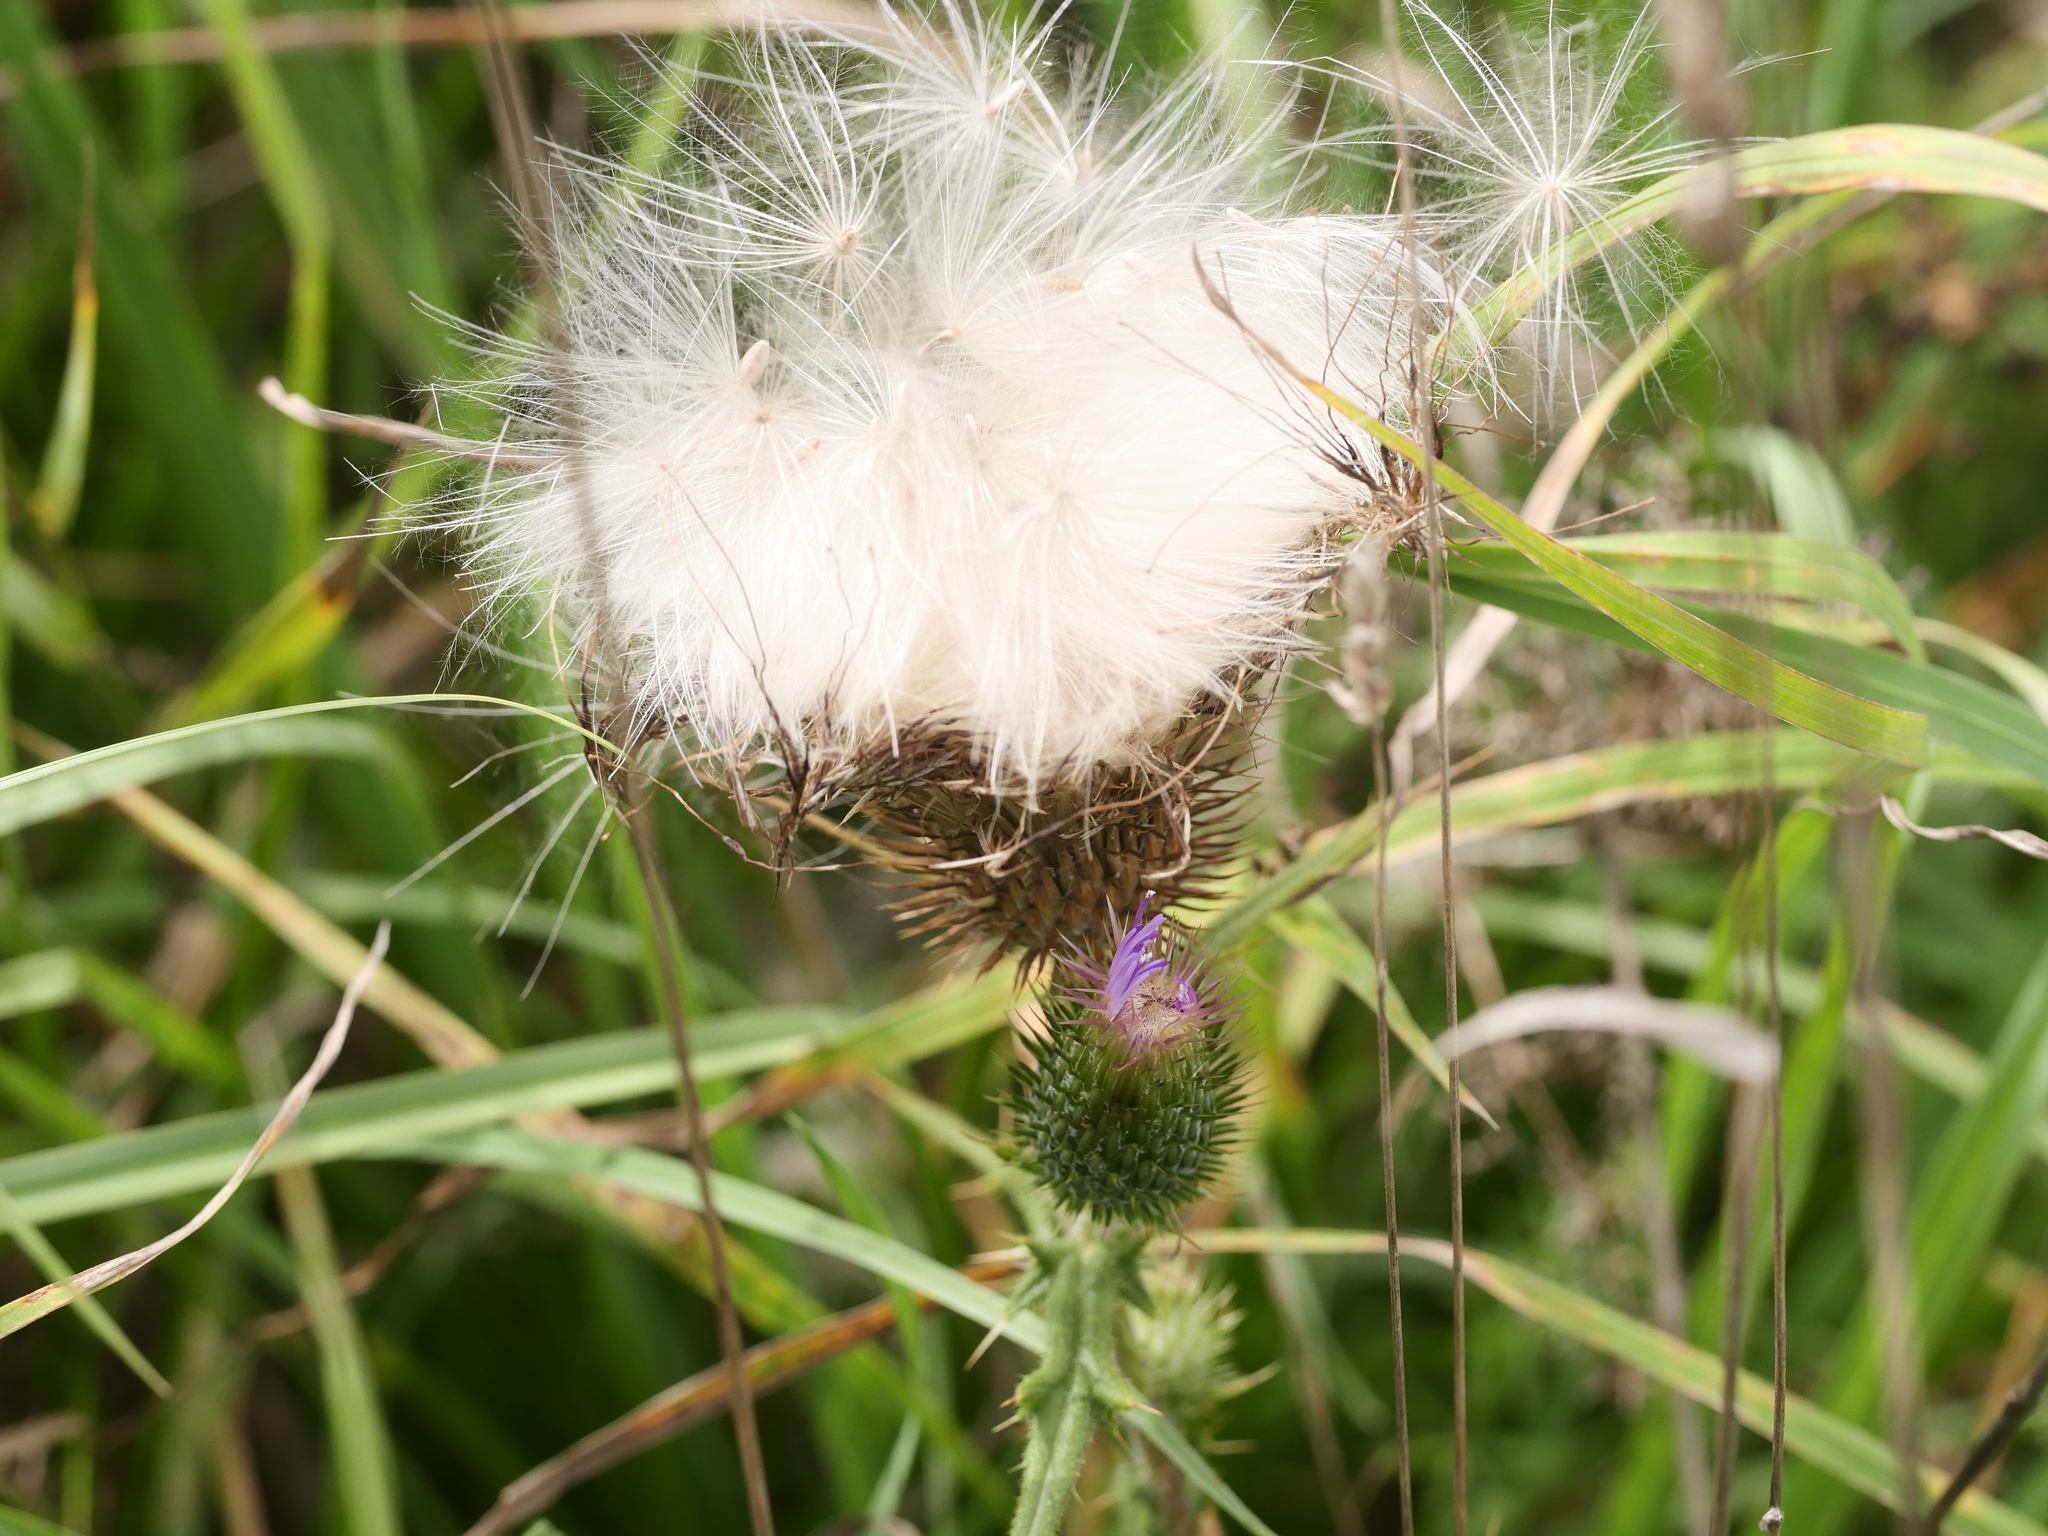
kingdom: Plantae
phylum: Tracheophyta
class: Magnoliopsida
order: Asterales
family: Asteraceae
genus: Cirsium
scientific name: Cirsium vulgare
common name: Bull thistle
